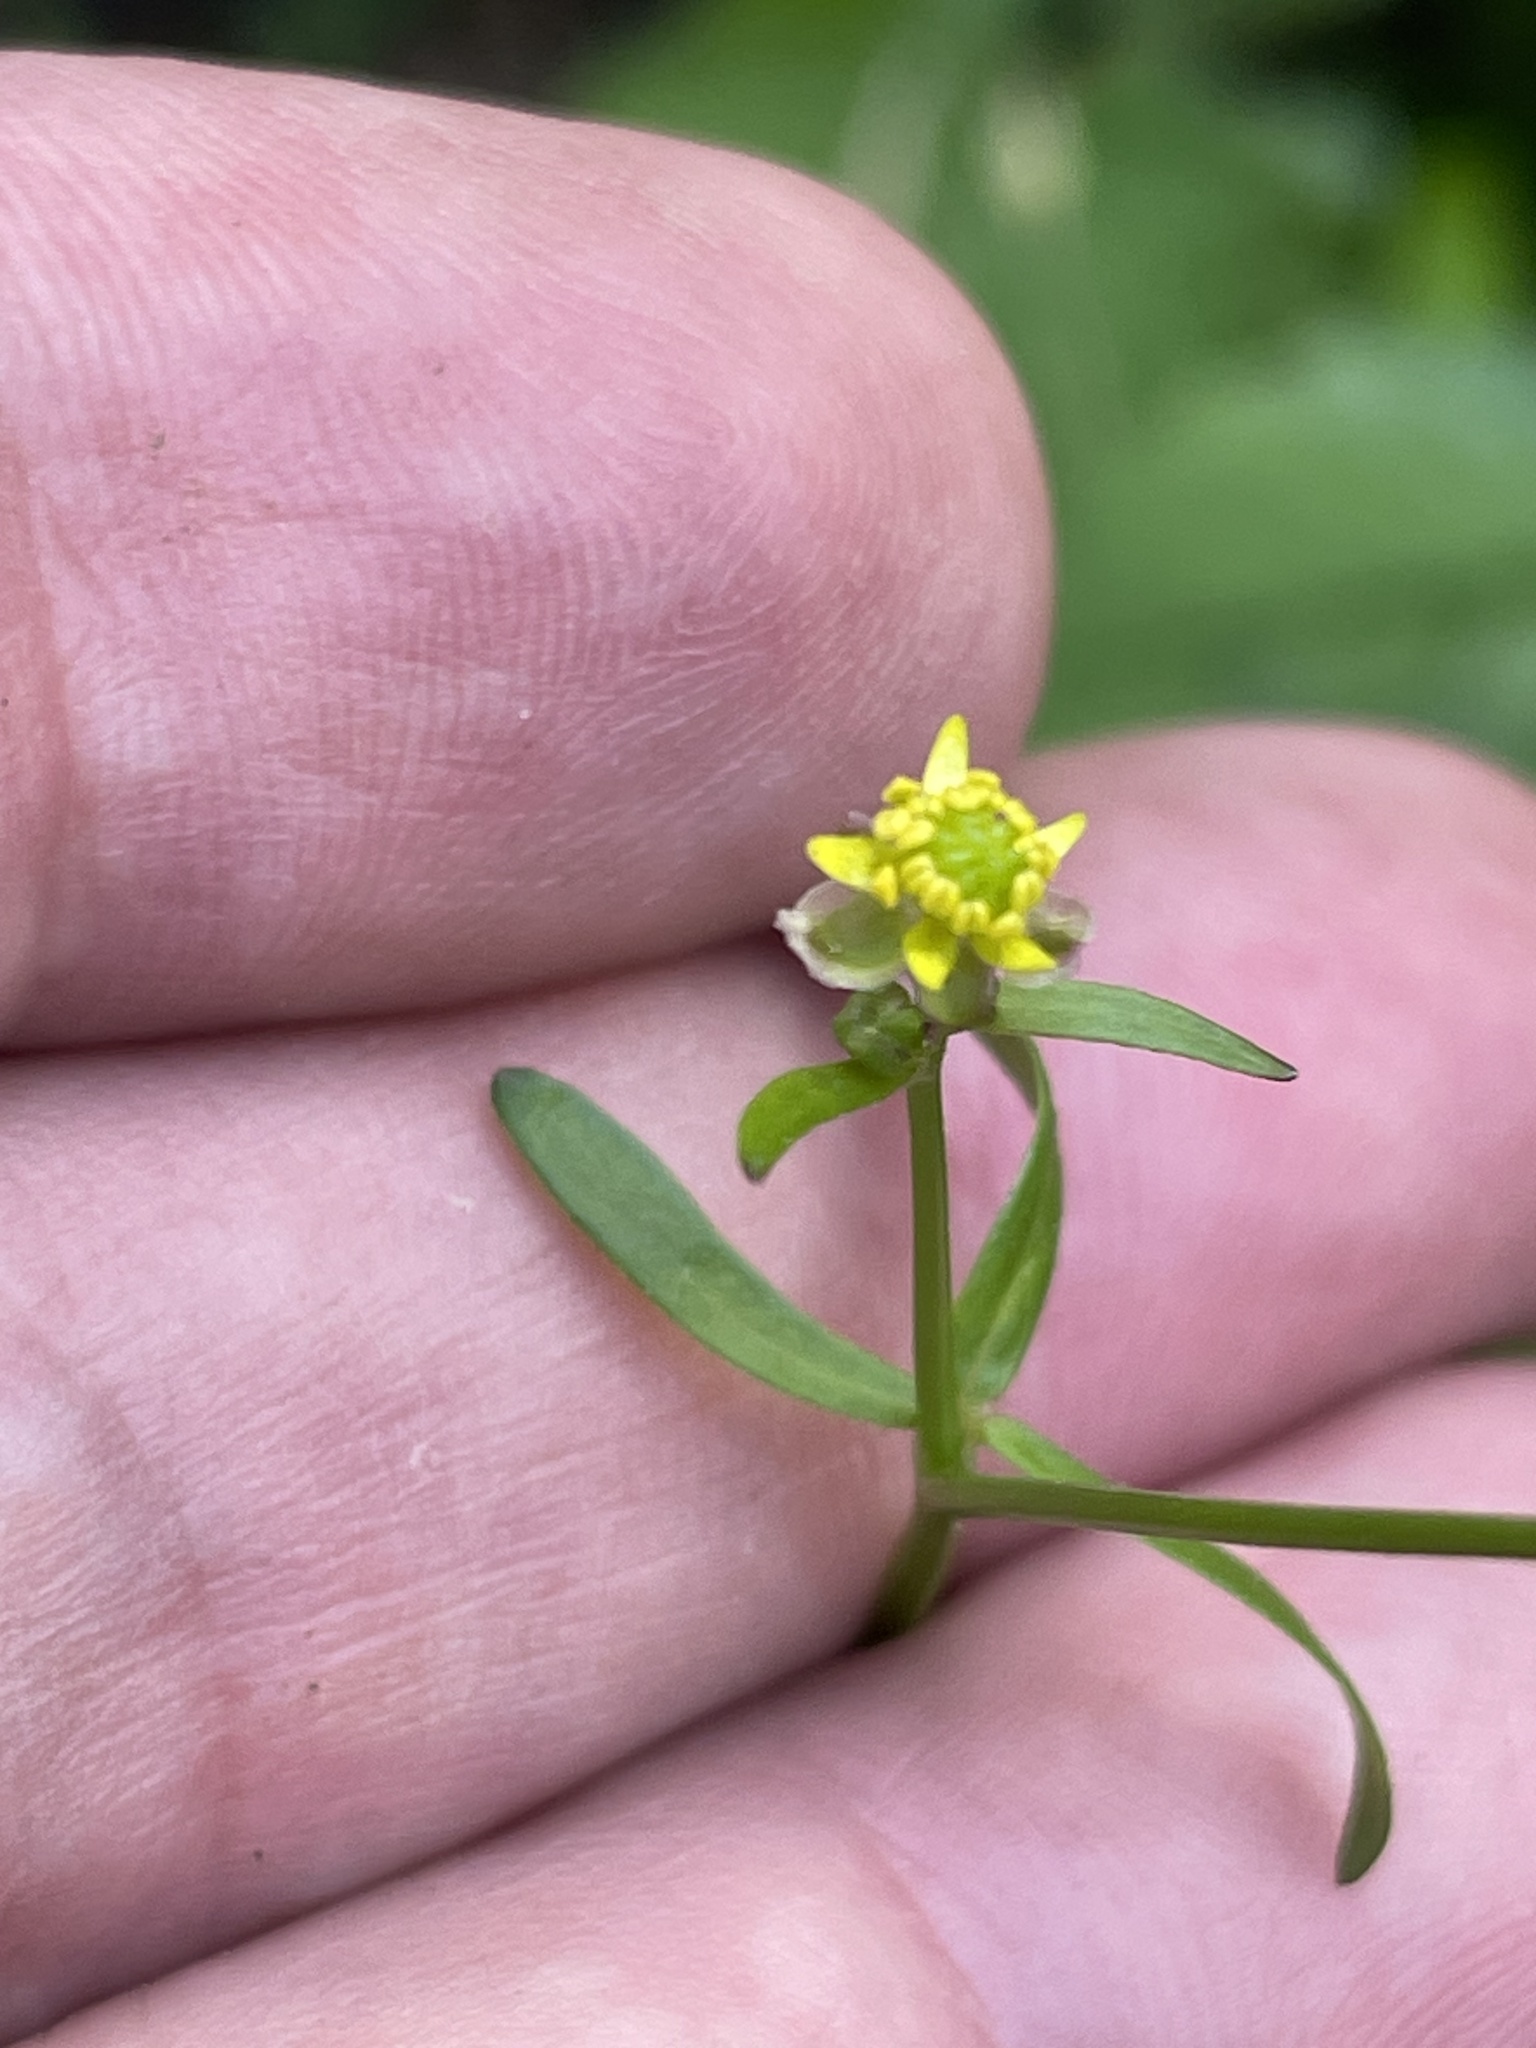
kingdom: Plantae
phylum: Tracheophyta
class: Magnoliopsida
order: Ranunculales
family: Ranunculaceae
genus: Ranunculus
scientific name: Ranunculus abortivus
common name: Early wood buttercup
